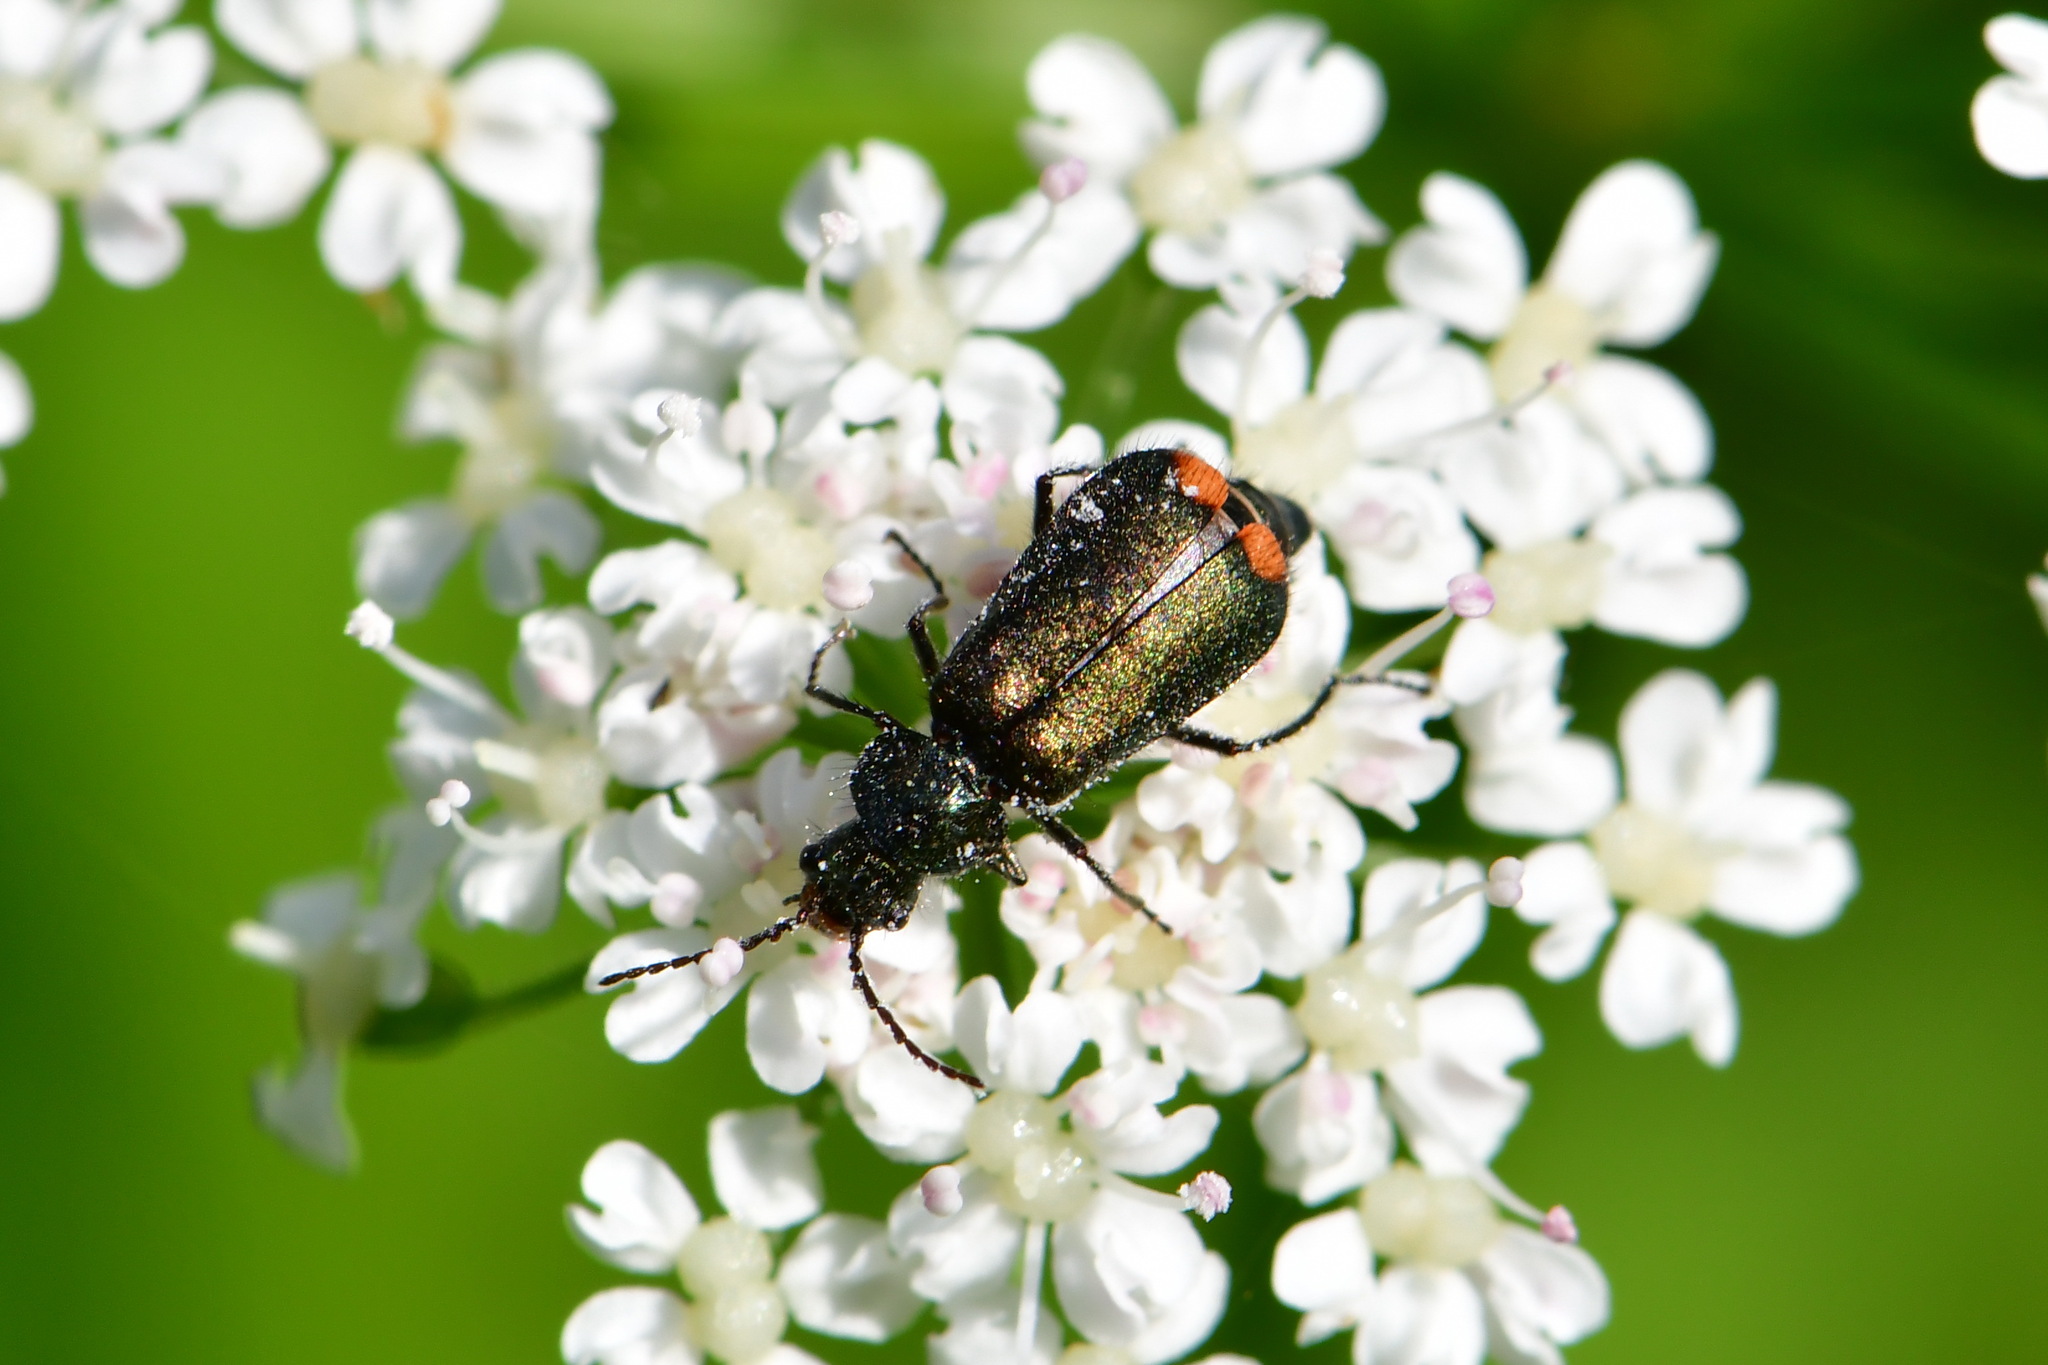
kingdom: Animalia
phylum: Arthropoda
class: Insecta
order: Coleoptera
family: Melyridae
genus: Malachius
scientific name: Malachius bipustulatus
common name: Malachite beetle
